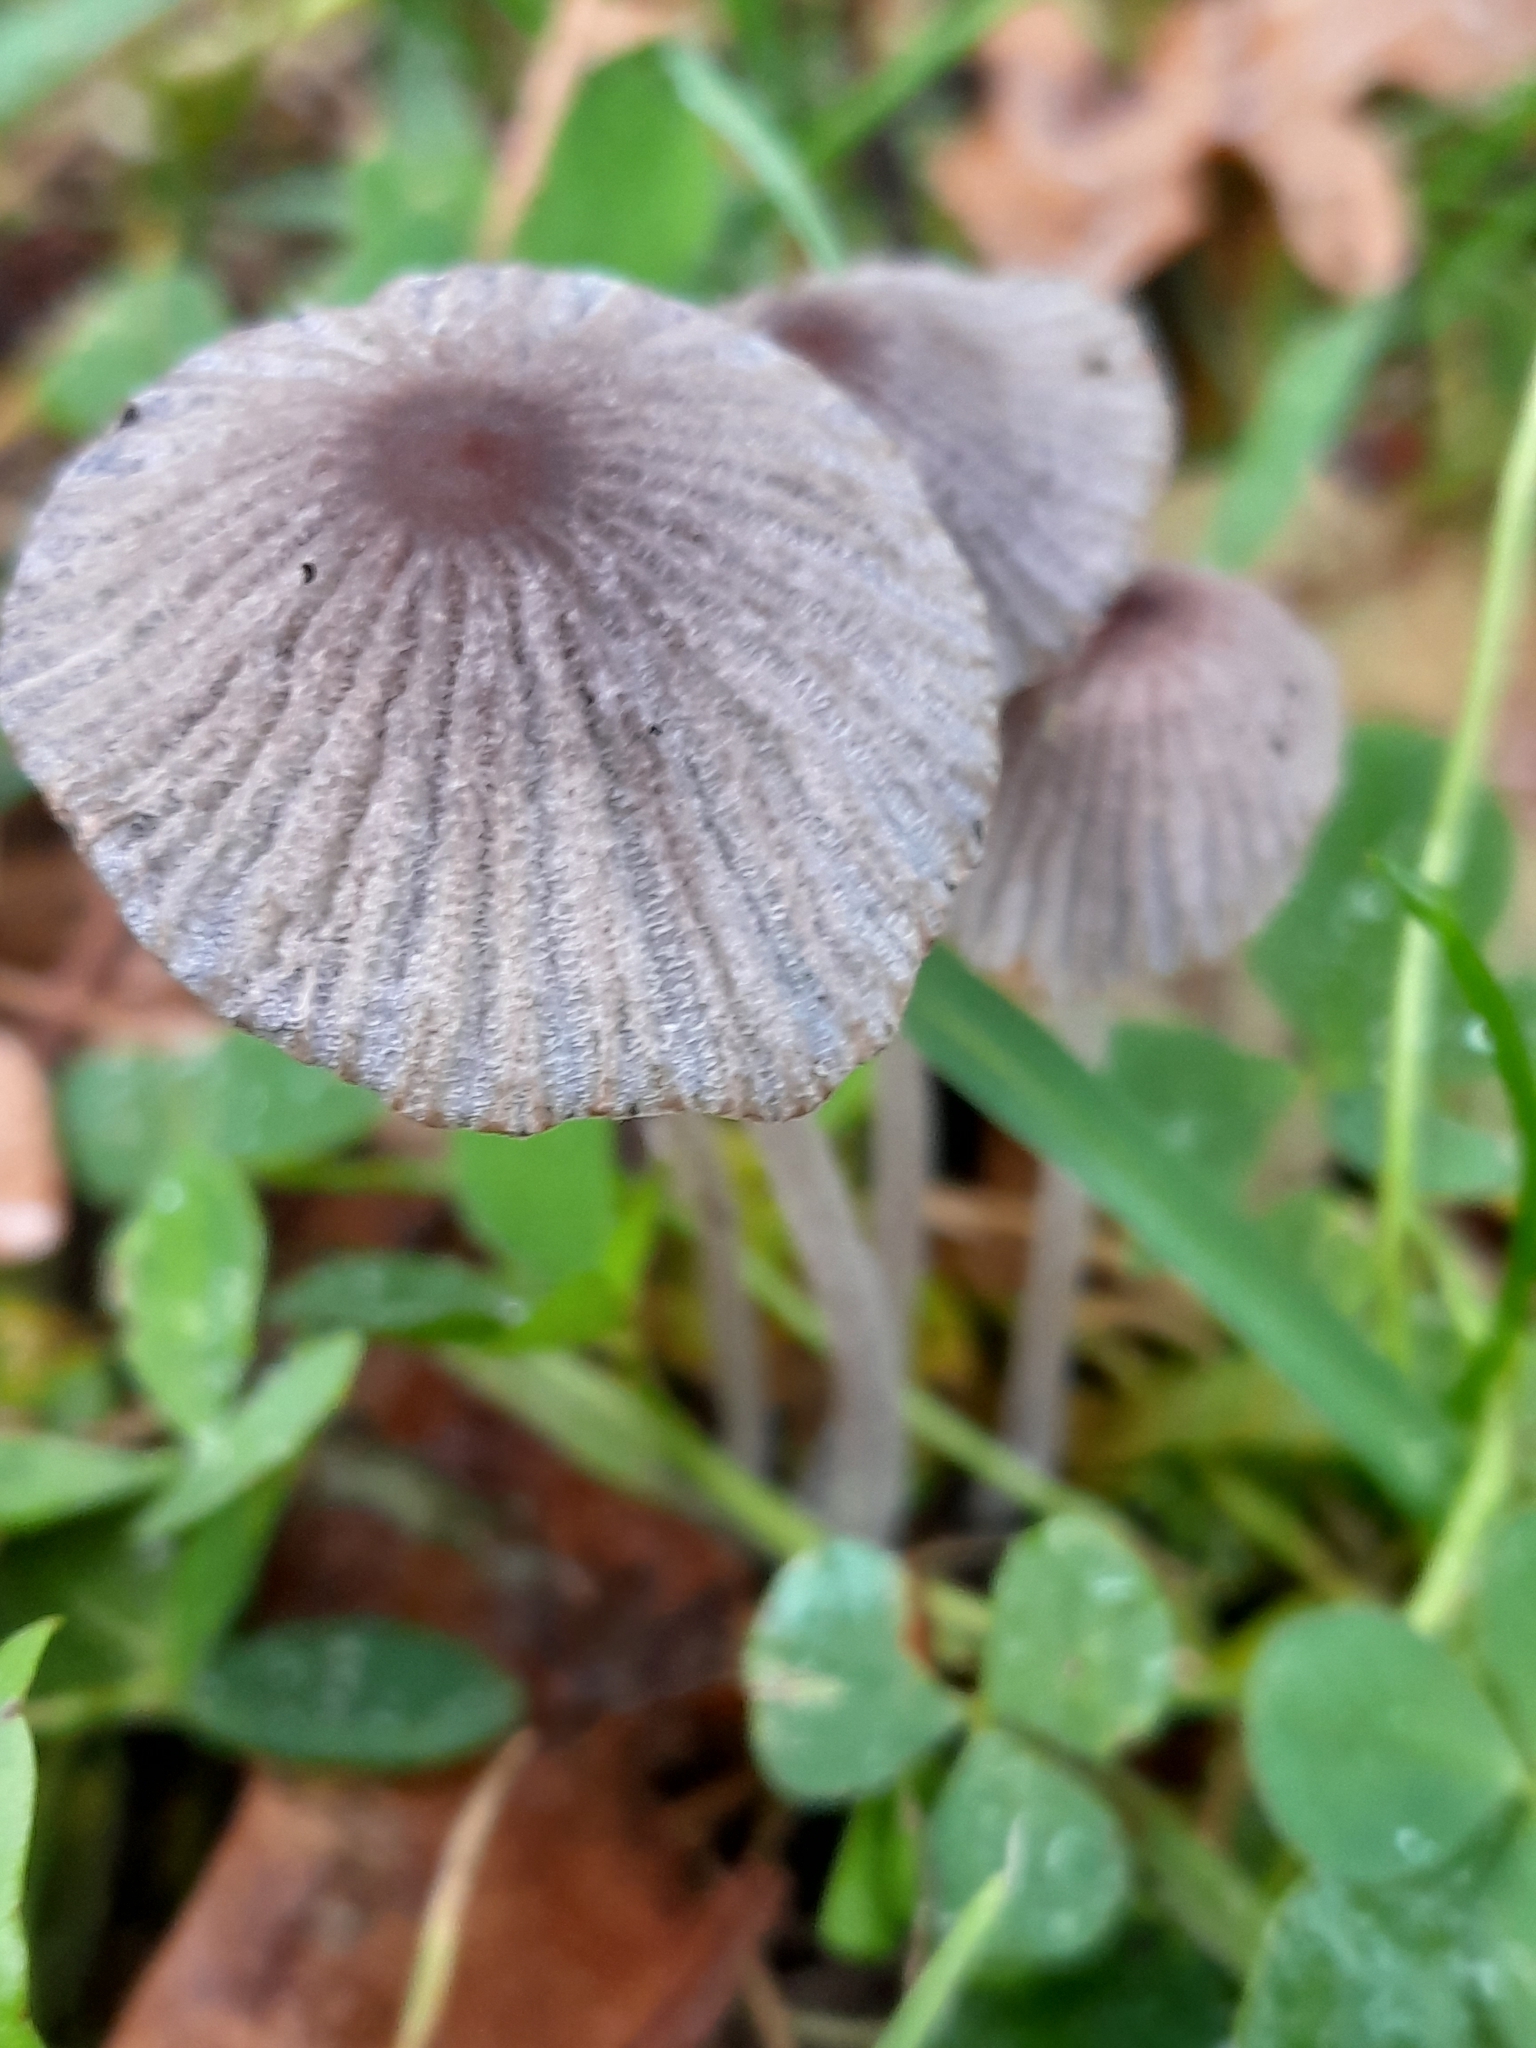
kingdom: Fungi
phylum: Basidiomycota
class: Agaricomycetes
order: Agaricales
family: Psathyrellaceae
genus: Parasola
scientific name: Parasola
